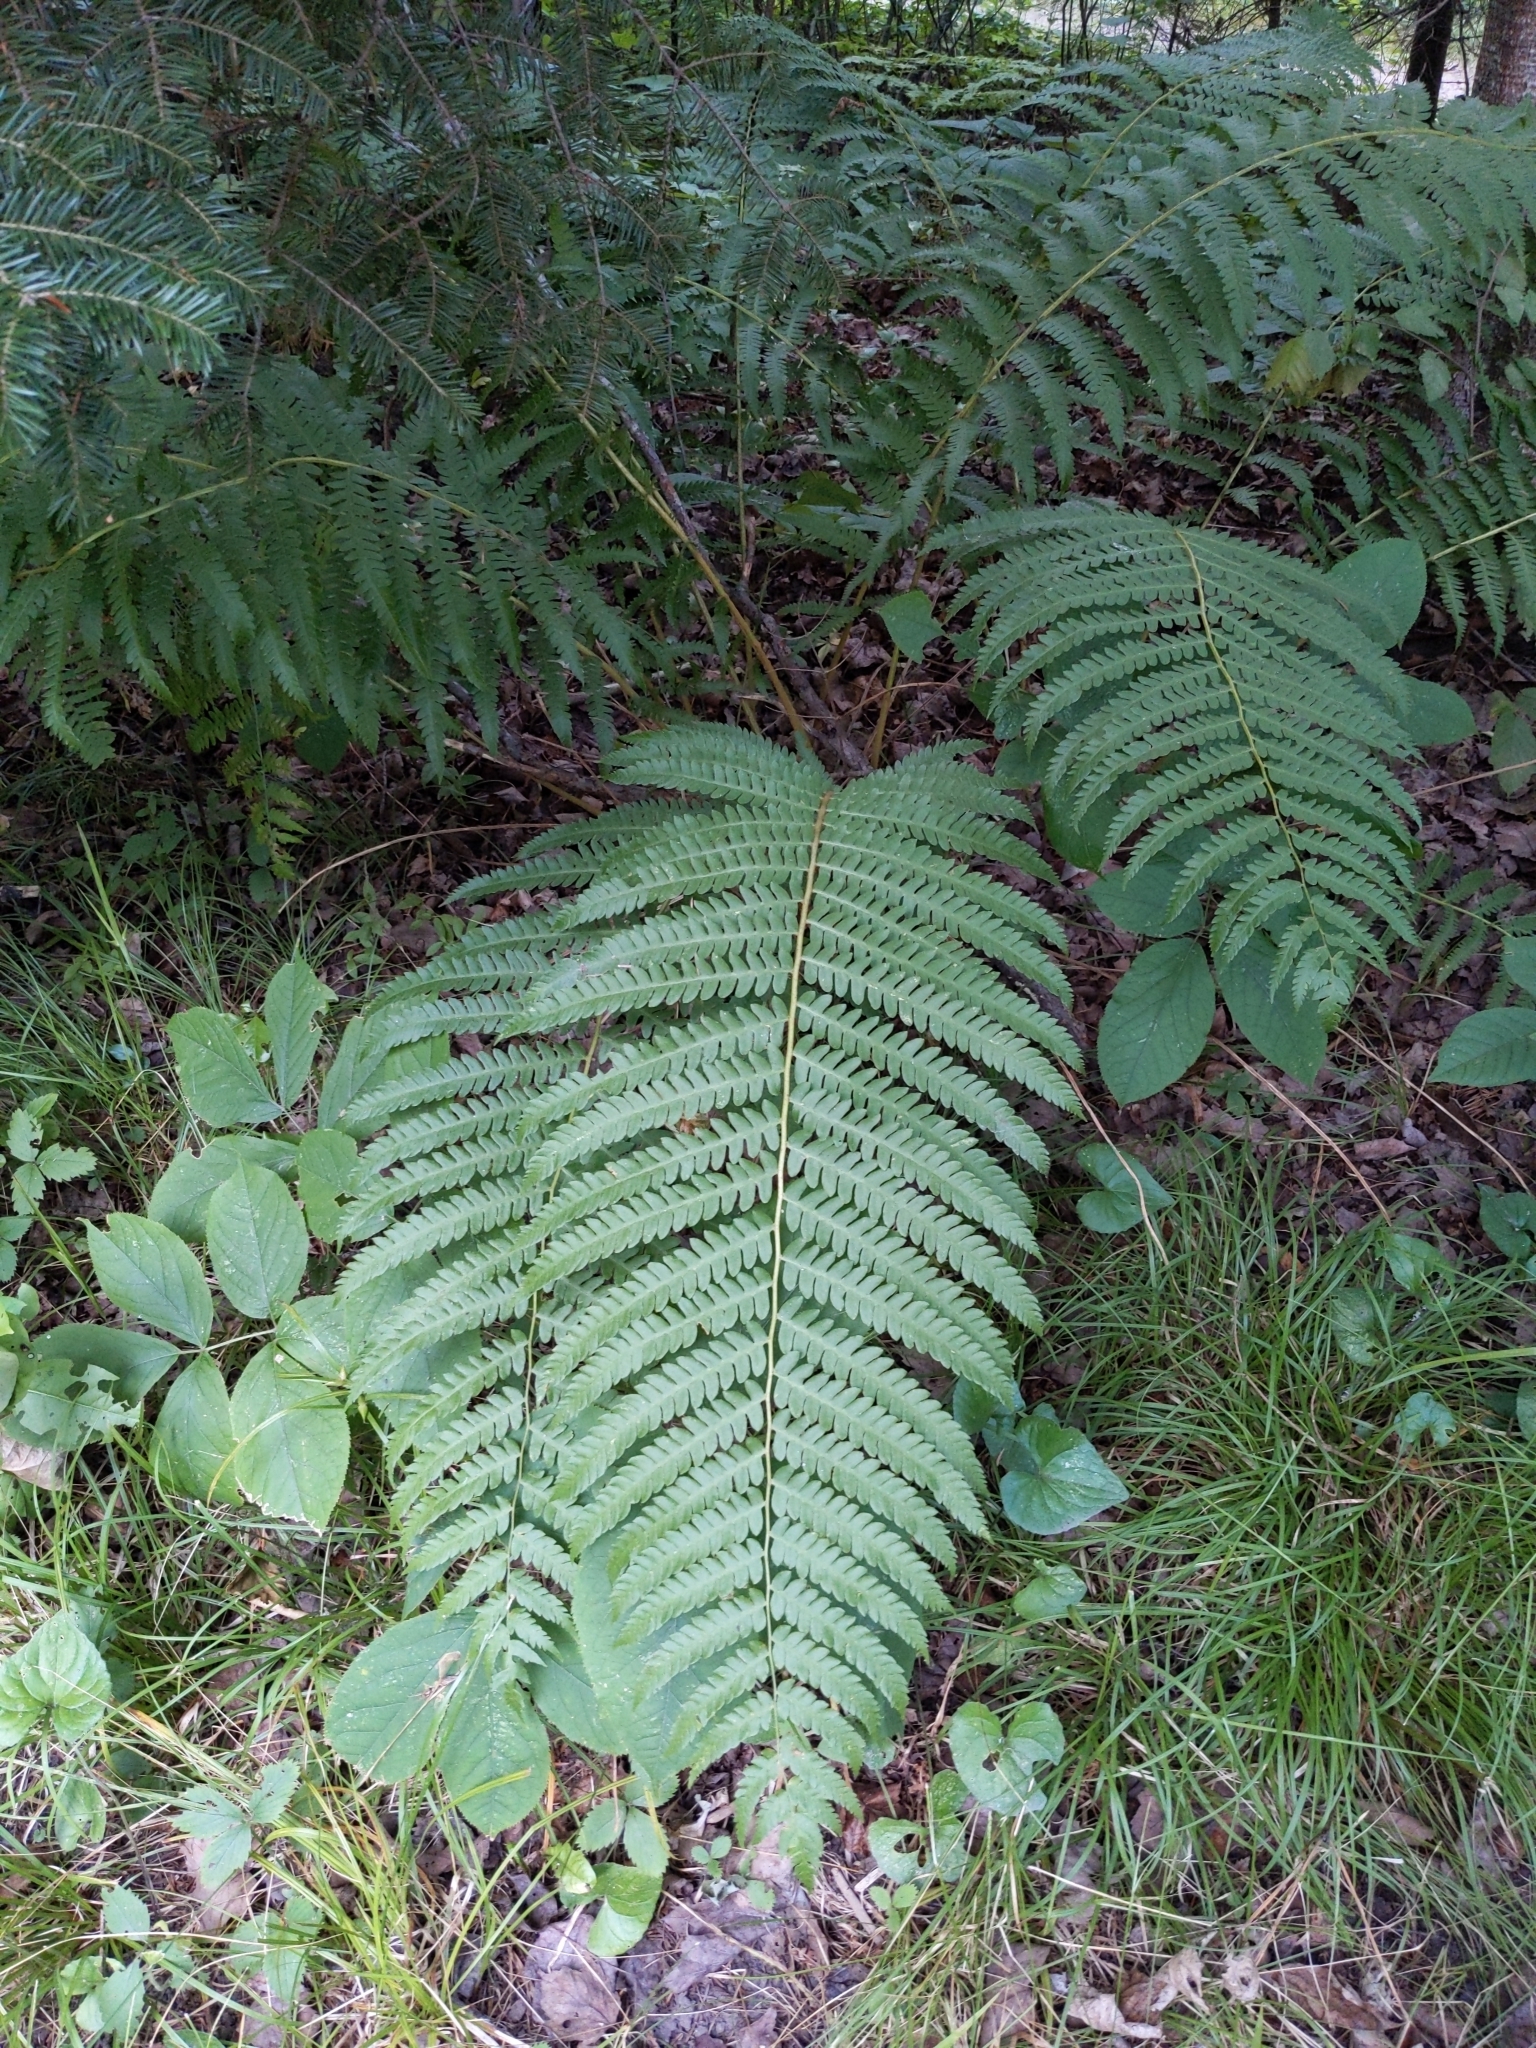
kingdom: Plantae
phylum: Tracheophyta
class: Polypodiopsida
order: Osmundales
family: Osmundaceae
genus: Osmundastrum
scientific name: Osmundastrum cinnamomeum
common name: Cinnamon fern
